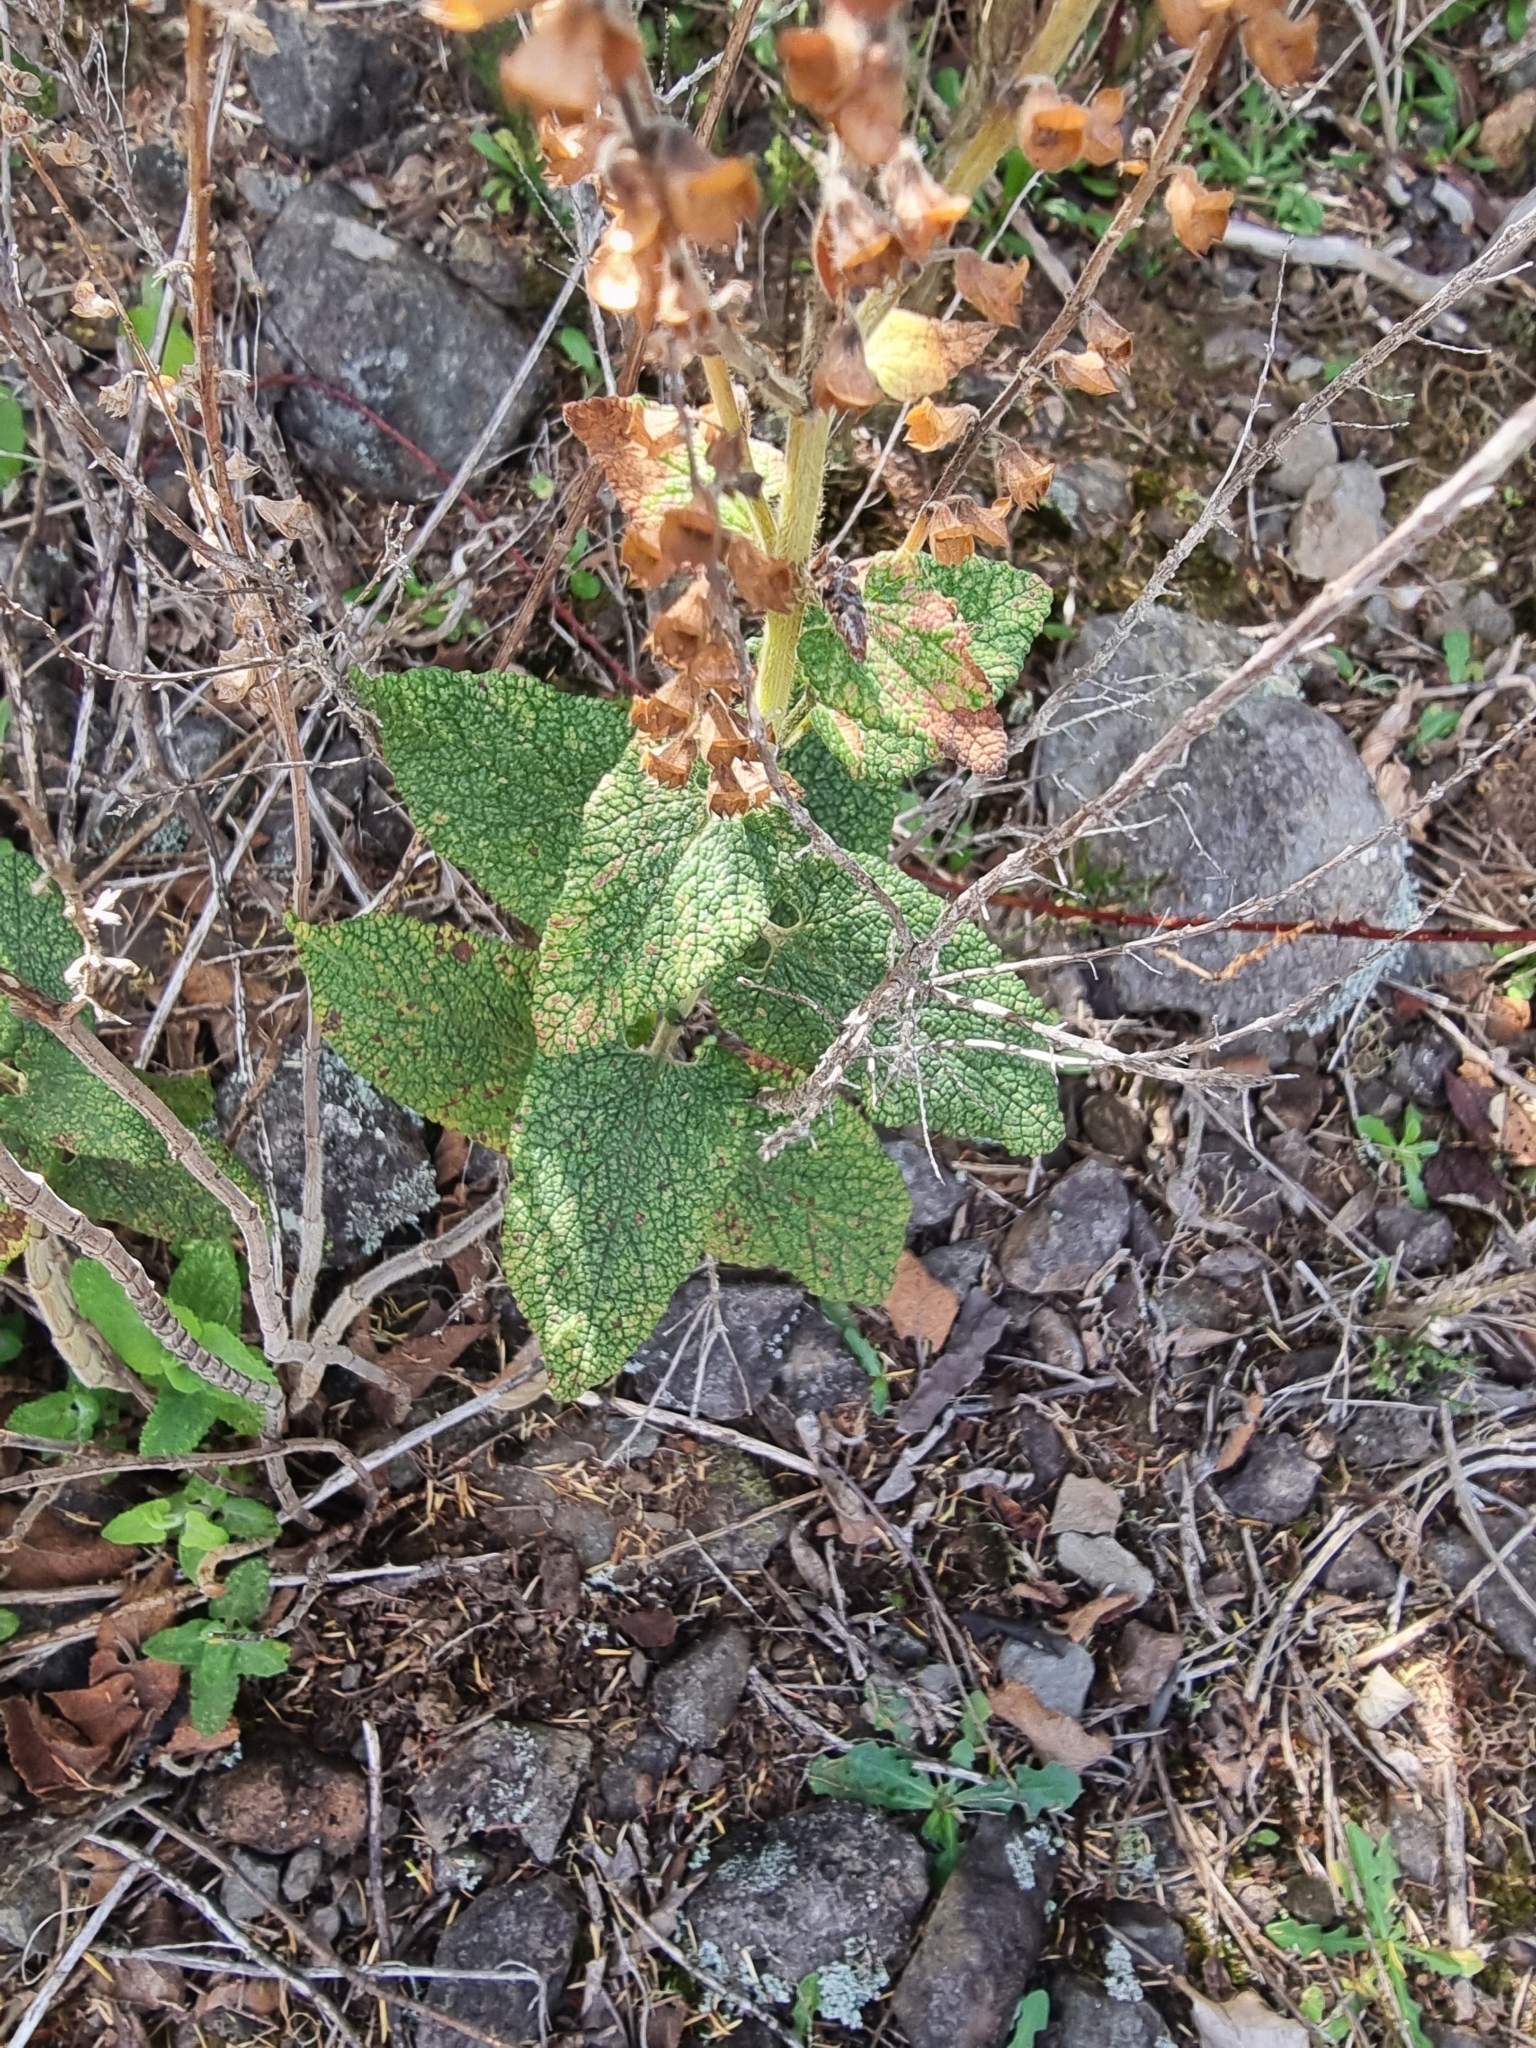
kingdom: Plantae
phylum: Tracheophyta
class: Magnoliopsida
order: Lamiales
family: Lamiaceae
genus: Teucrium
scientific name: Teucrium francoi
